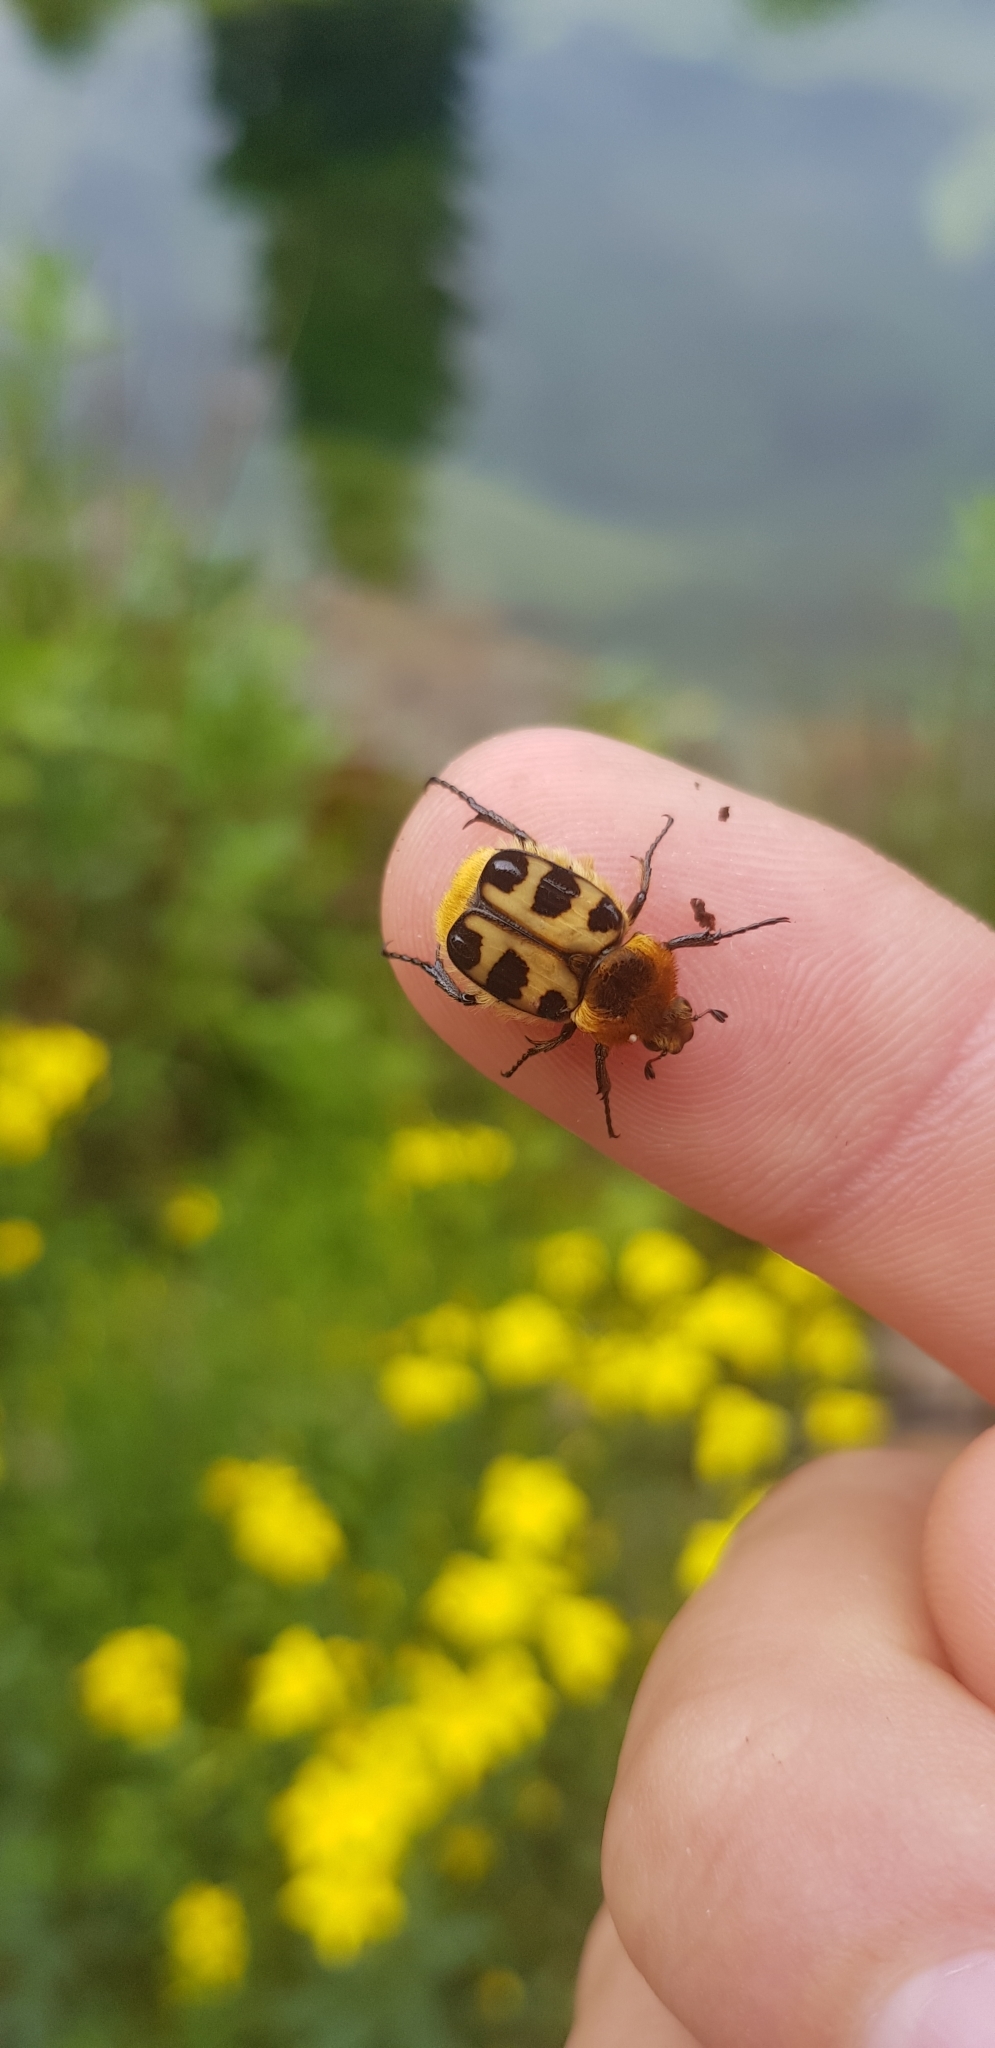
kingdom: Animalia
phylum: Arthropoda
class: Insecta
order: Coleoptera
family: Scarabaeidae
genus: Trichius
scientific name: Trichius gallicus
